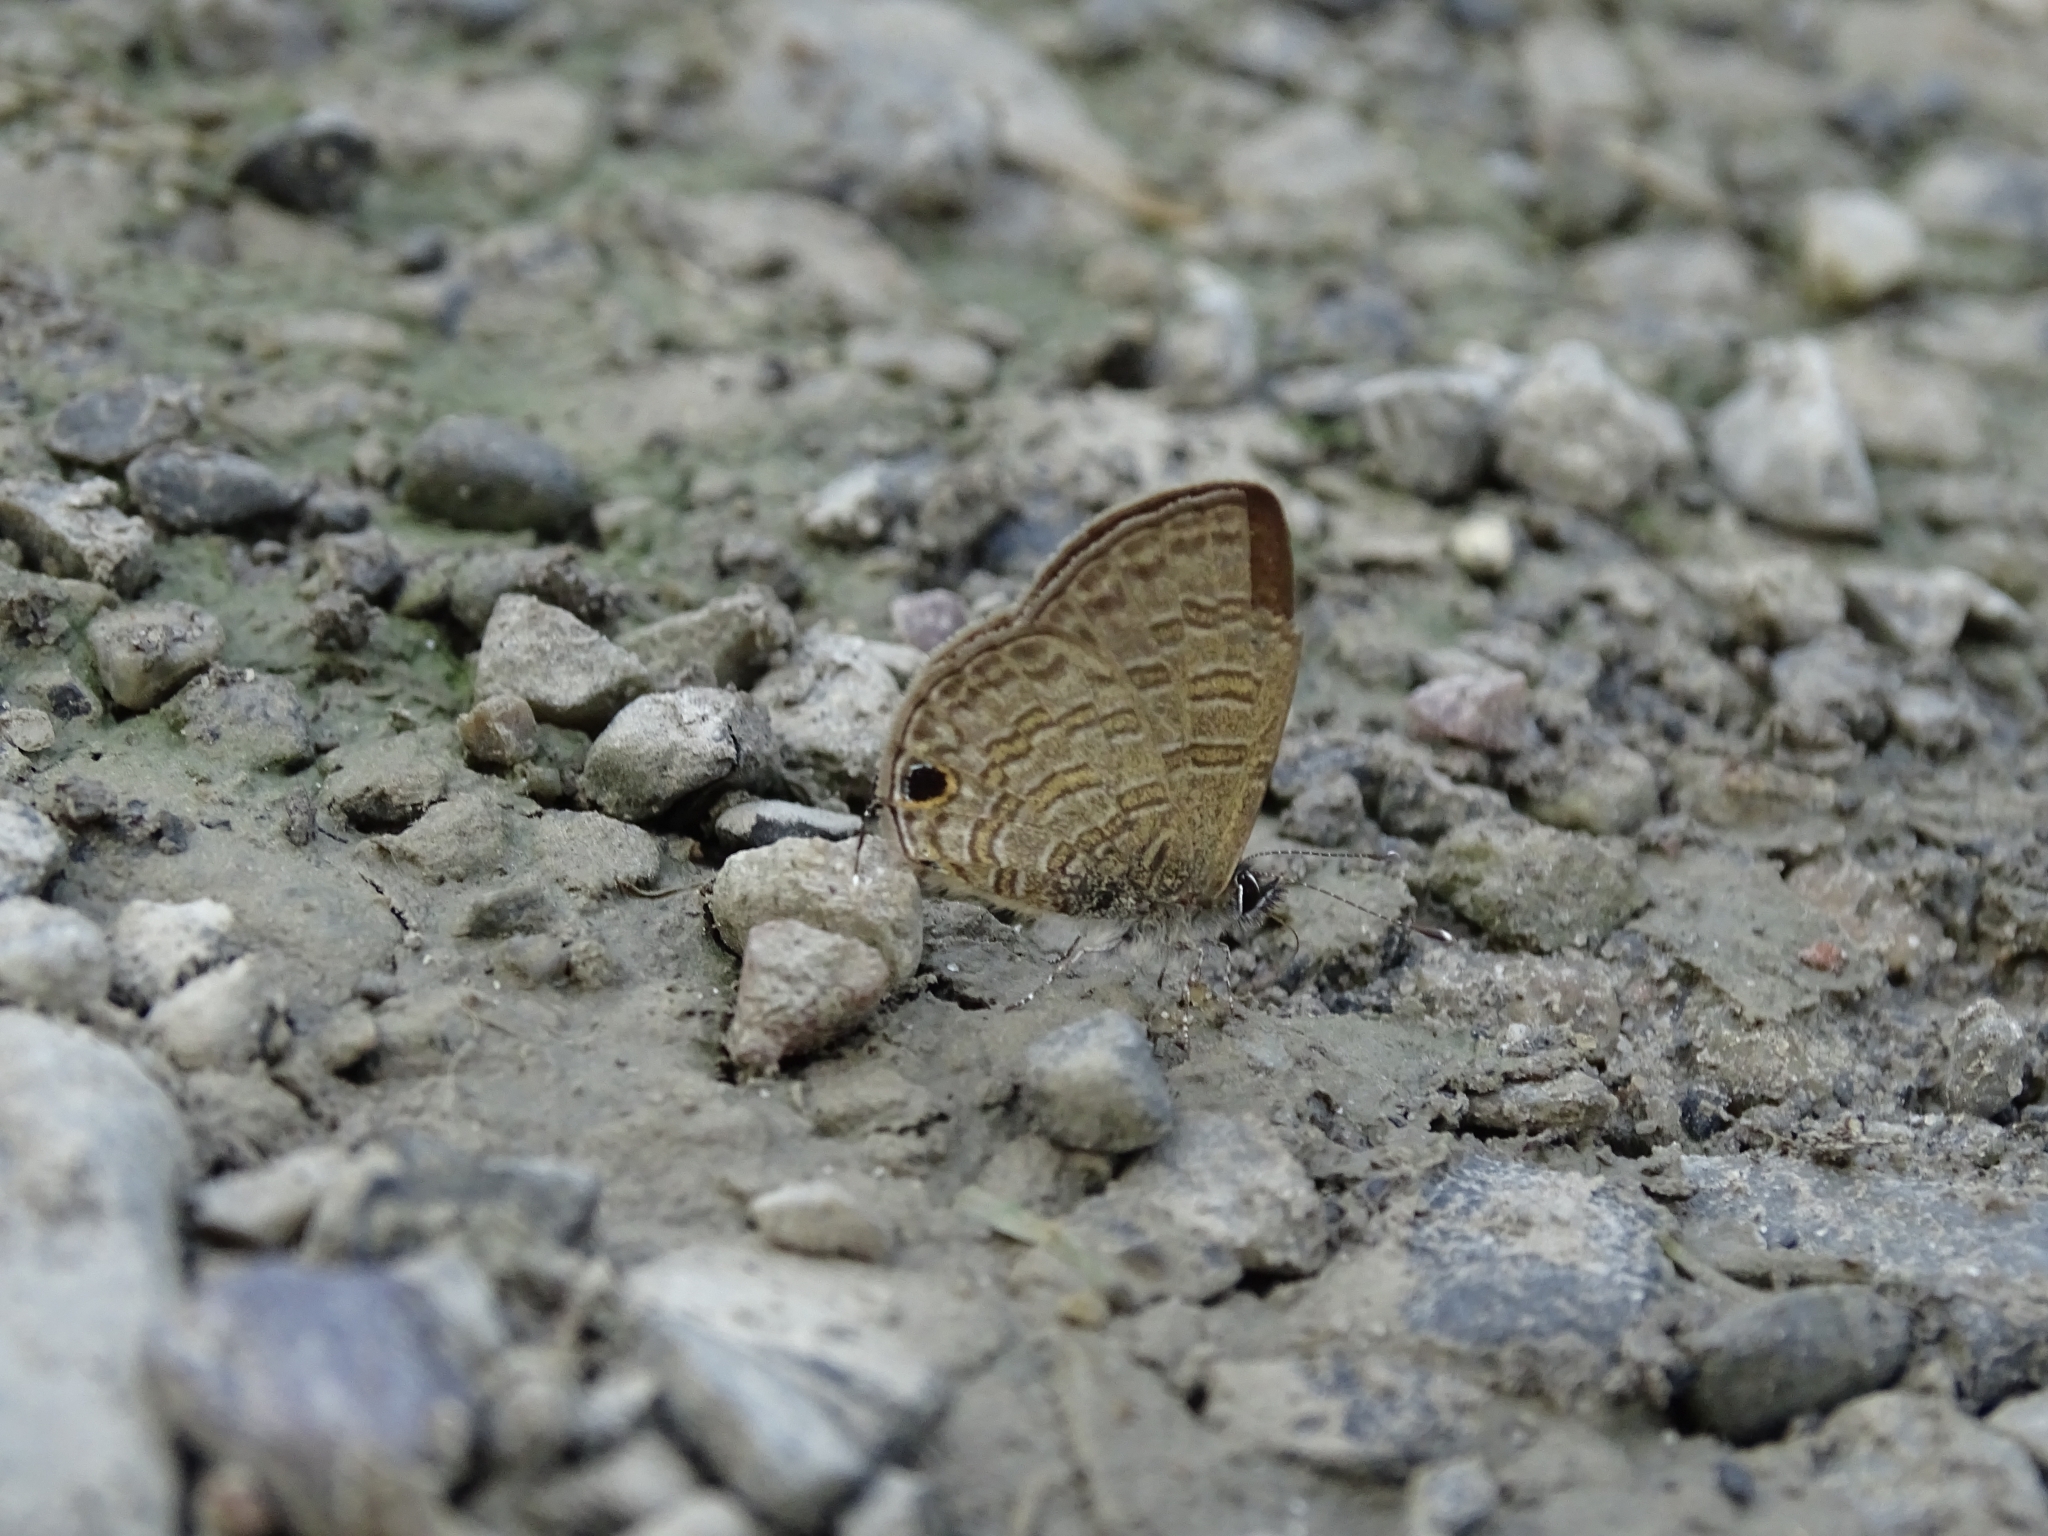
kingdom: Animalia
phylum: Arthropoda
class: Insecta
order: Lepidoptera
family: Lycaenidae
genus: Prosotas
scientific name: Prosotas nora
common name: Common line blue
